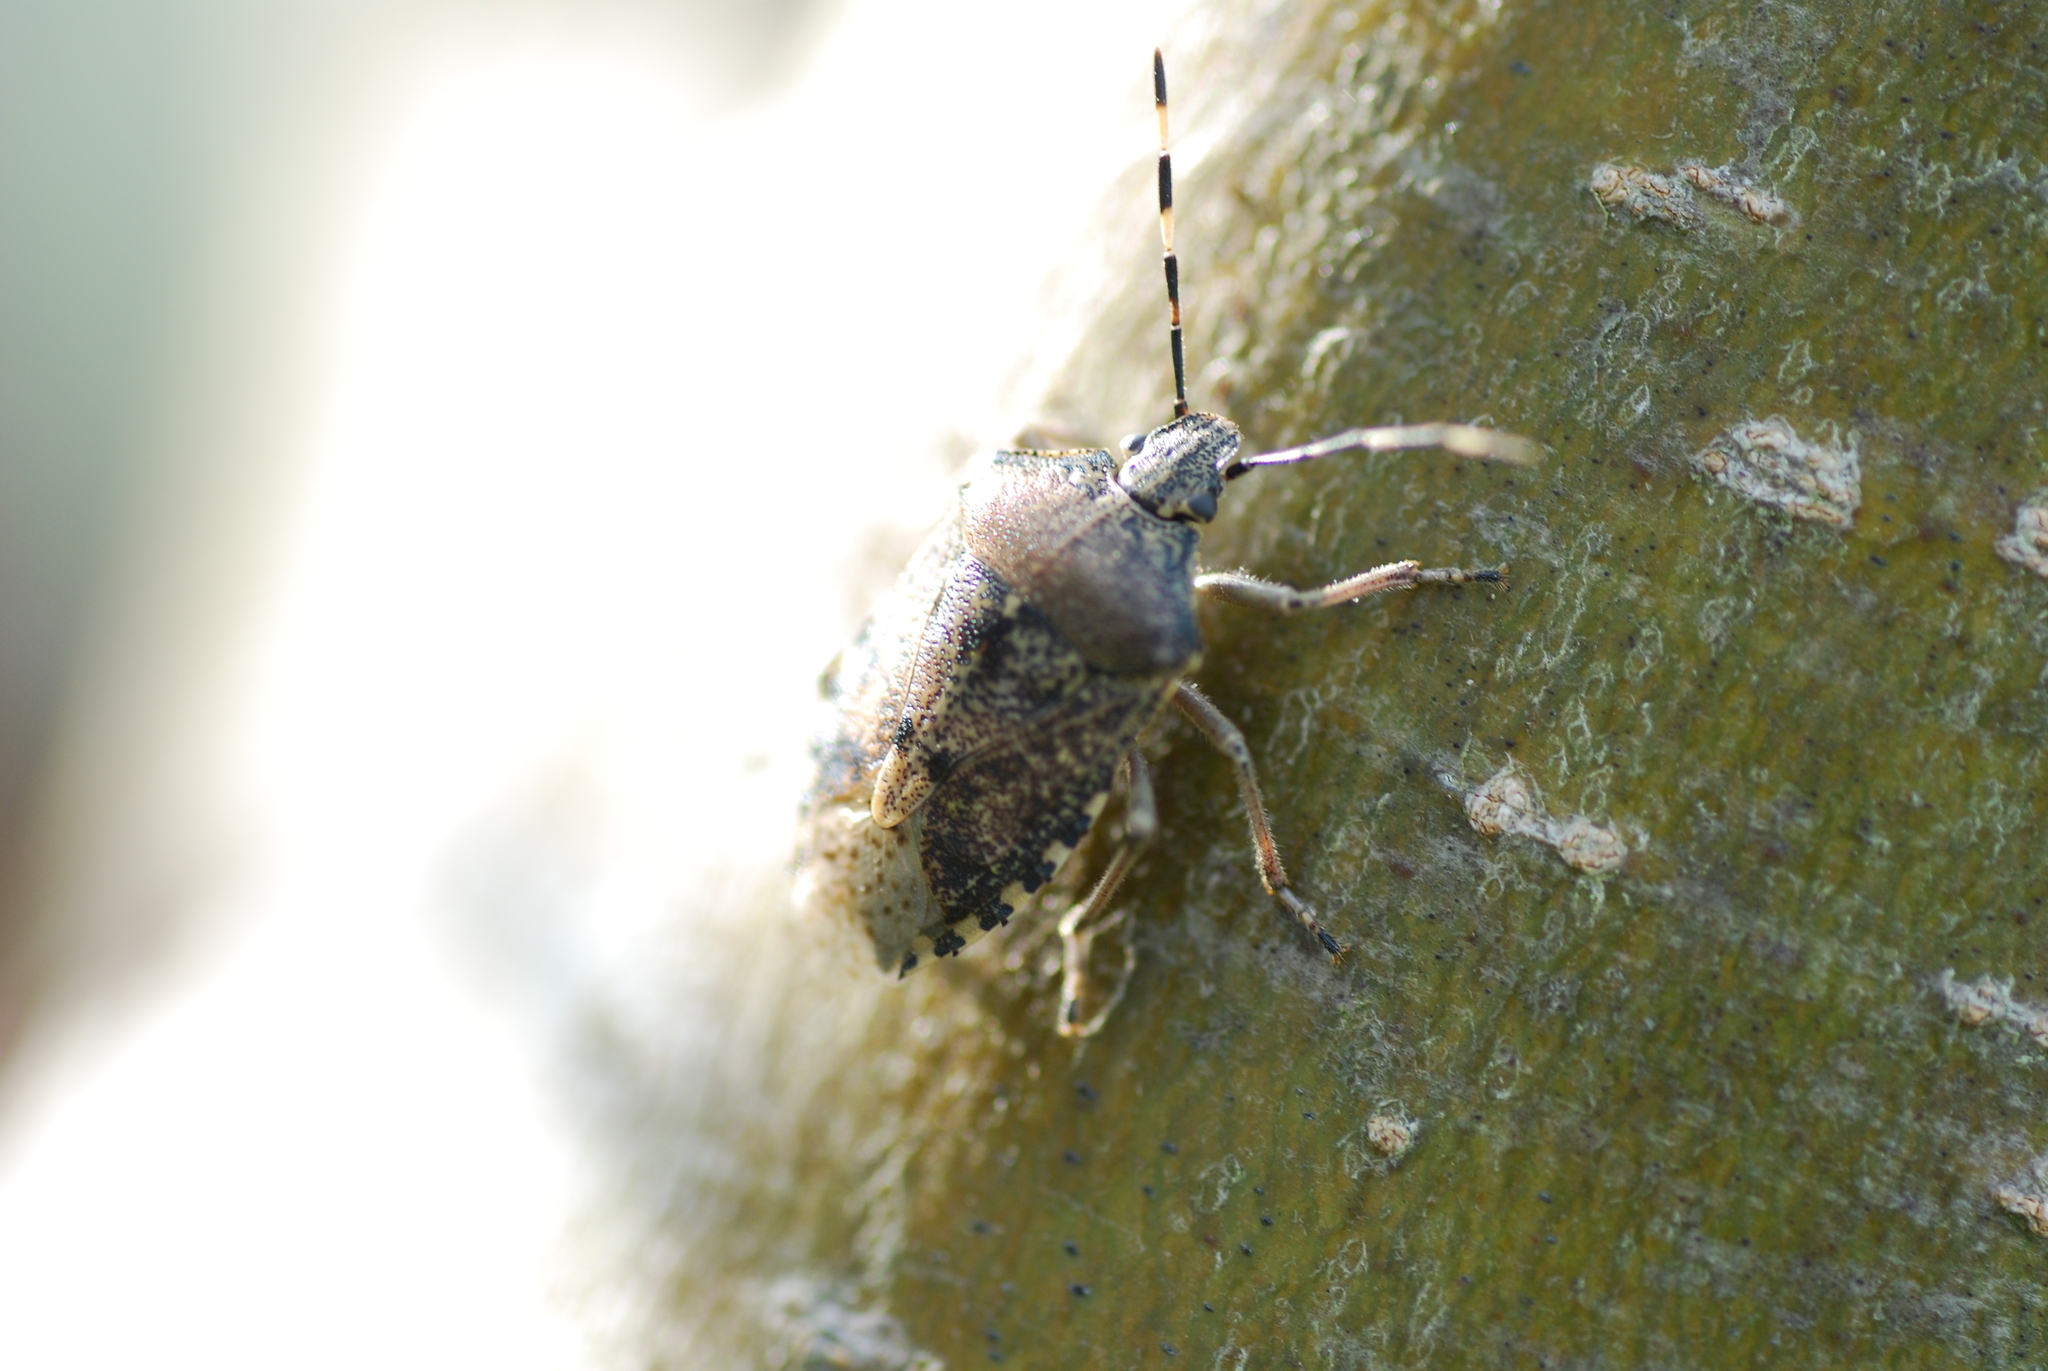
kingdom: Animalia
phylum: Arthropoda
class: Insecta
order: Hemiptera
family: Pentatomidae
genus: Rhaphigaster
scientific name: Rhaphigaster nebulosa
